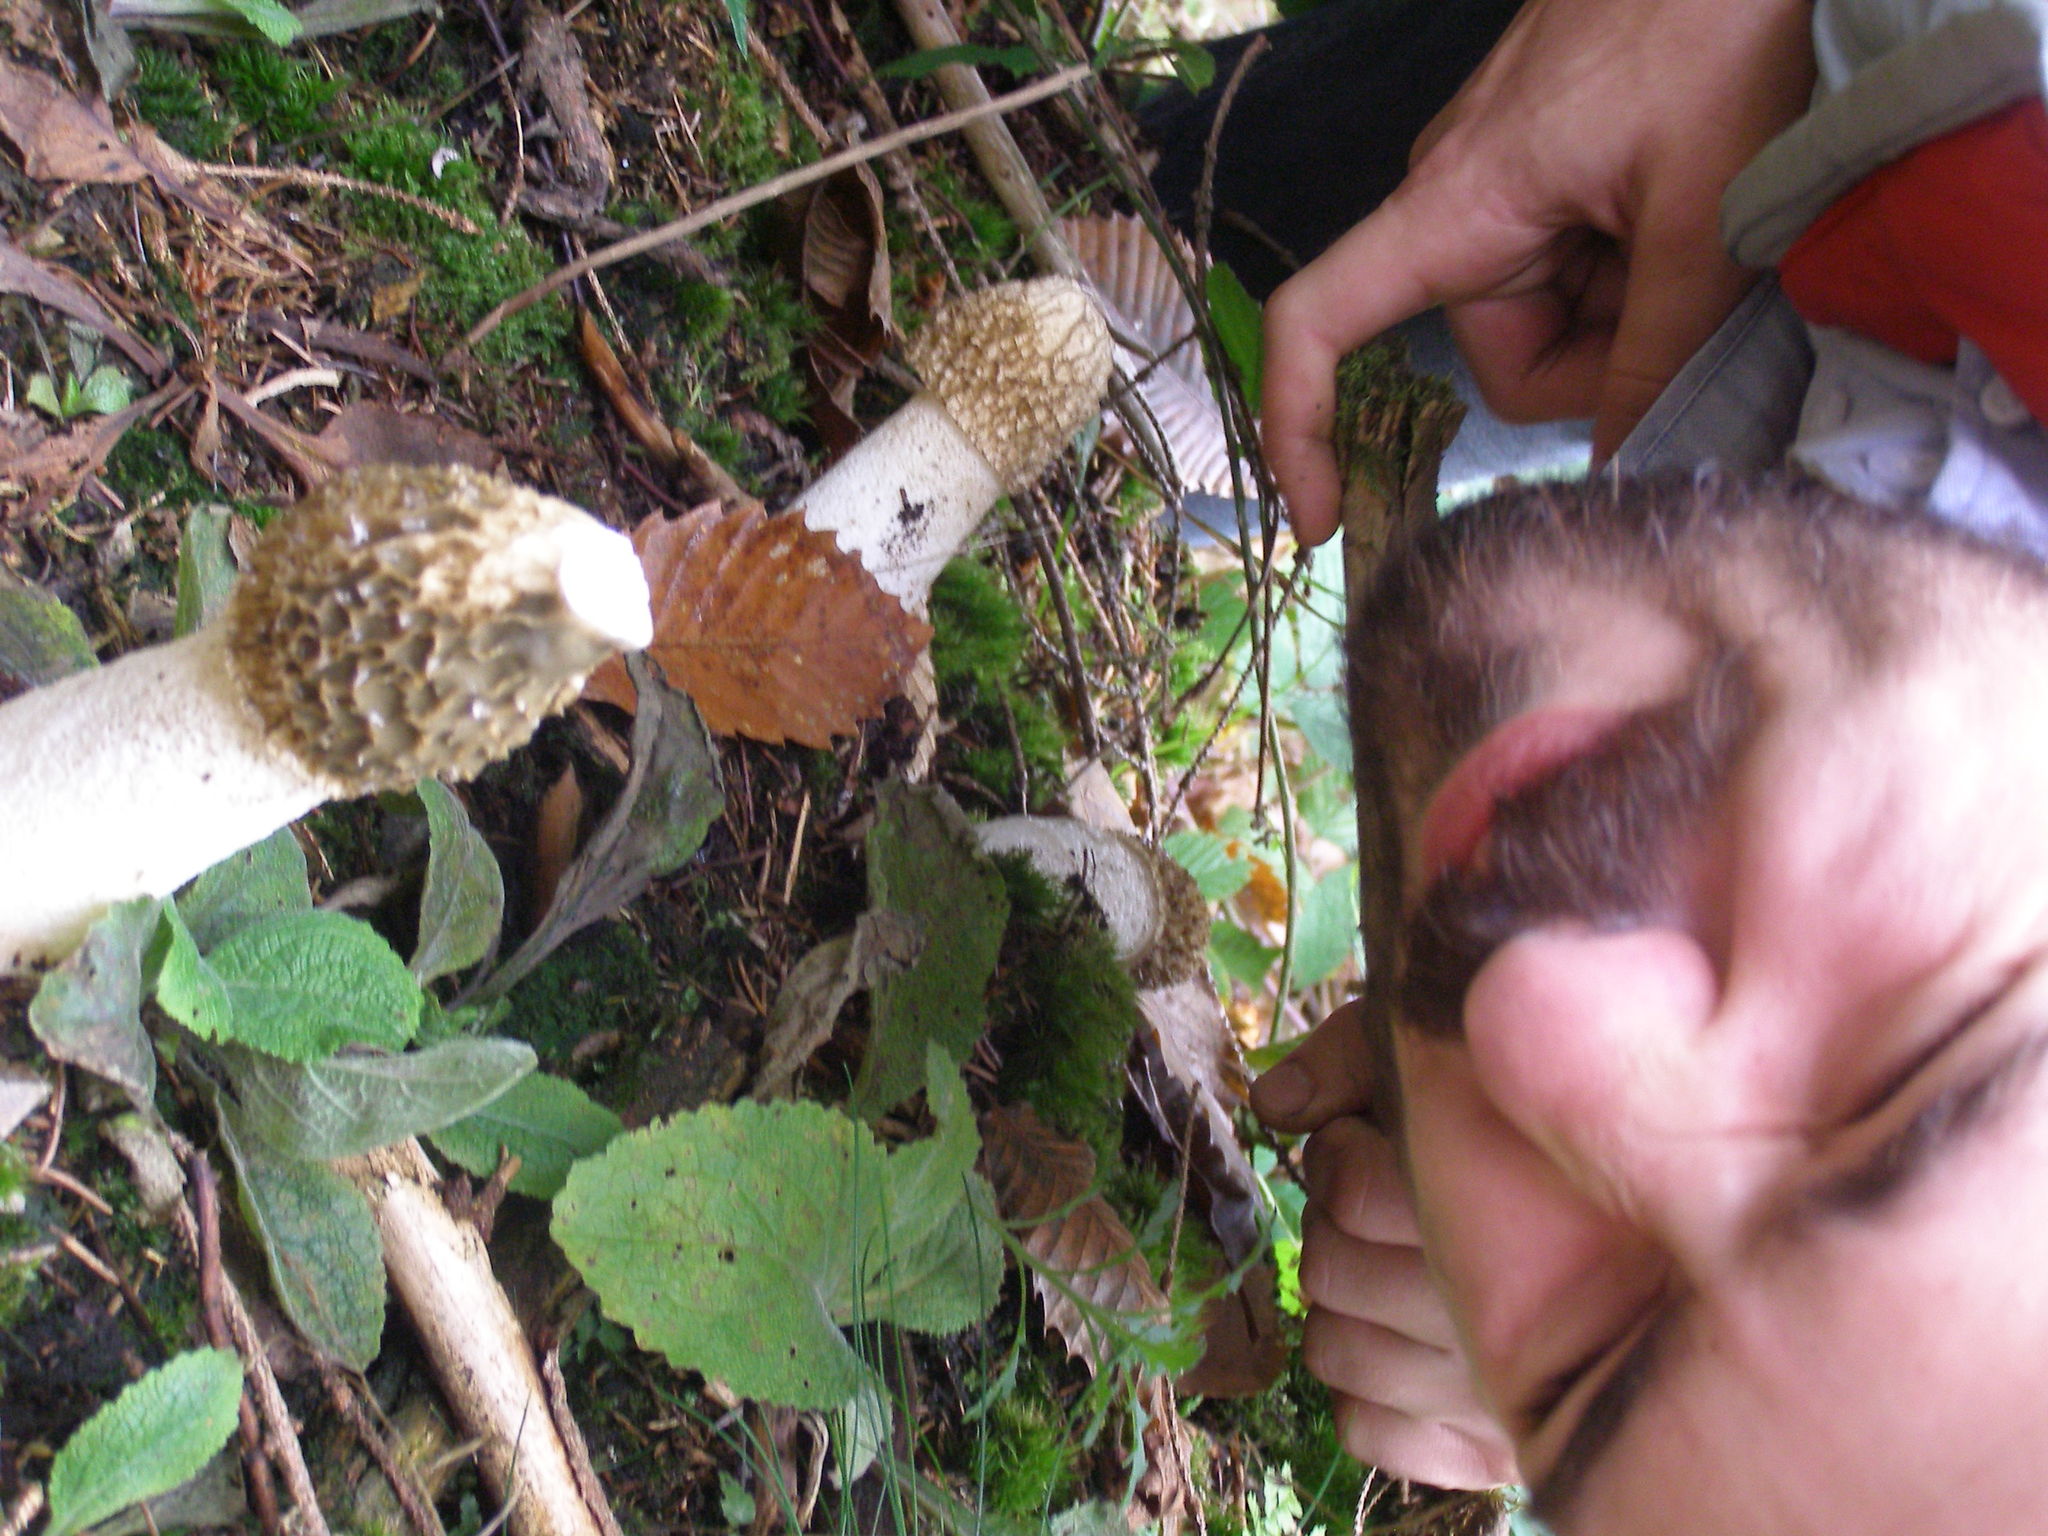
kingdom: Fungi
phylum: Basidiomycota
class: Agaricomycetes
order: Phallales
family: Phallaceae
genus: Phallus
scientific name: Phallus impudicus
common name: Common stinkhorn
